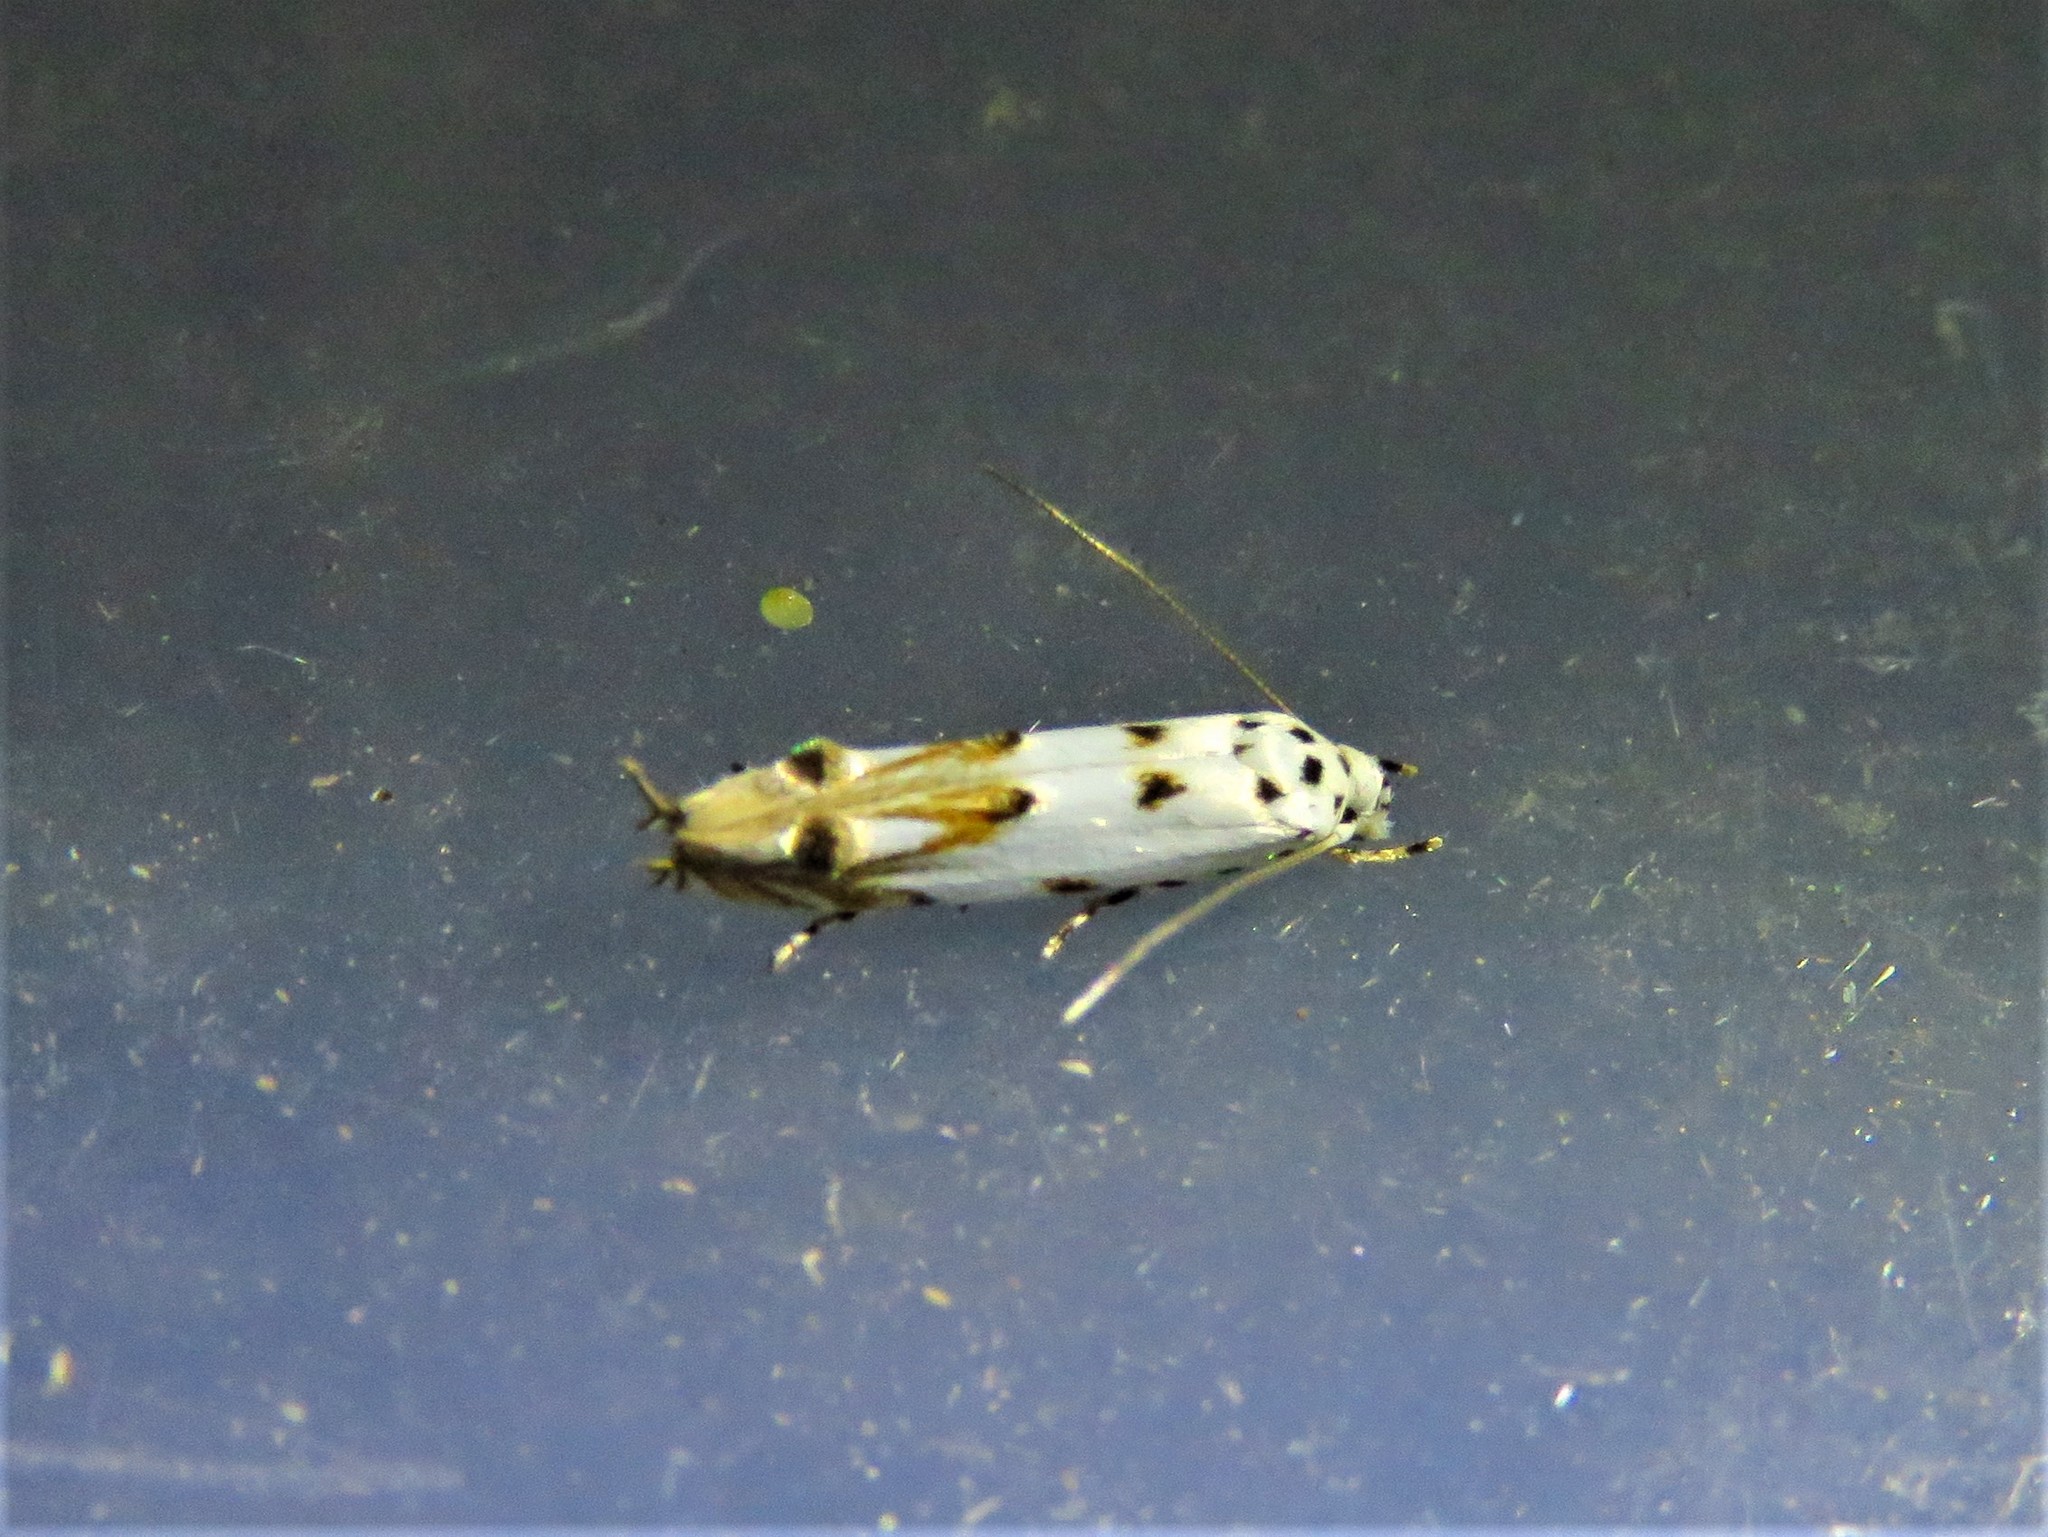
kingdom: Animalia
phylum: Arthropoda
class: Insecta
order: Lepidoptera
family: Momphidae
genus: Mompha
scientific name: Mompha eloisella
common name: Red-streaked mompha moth
